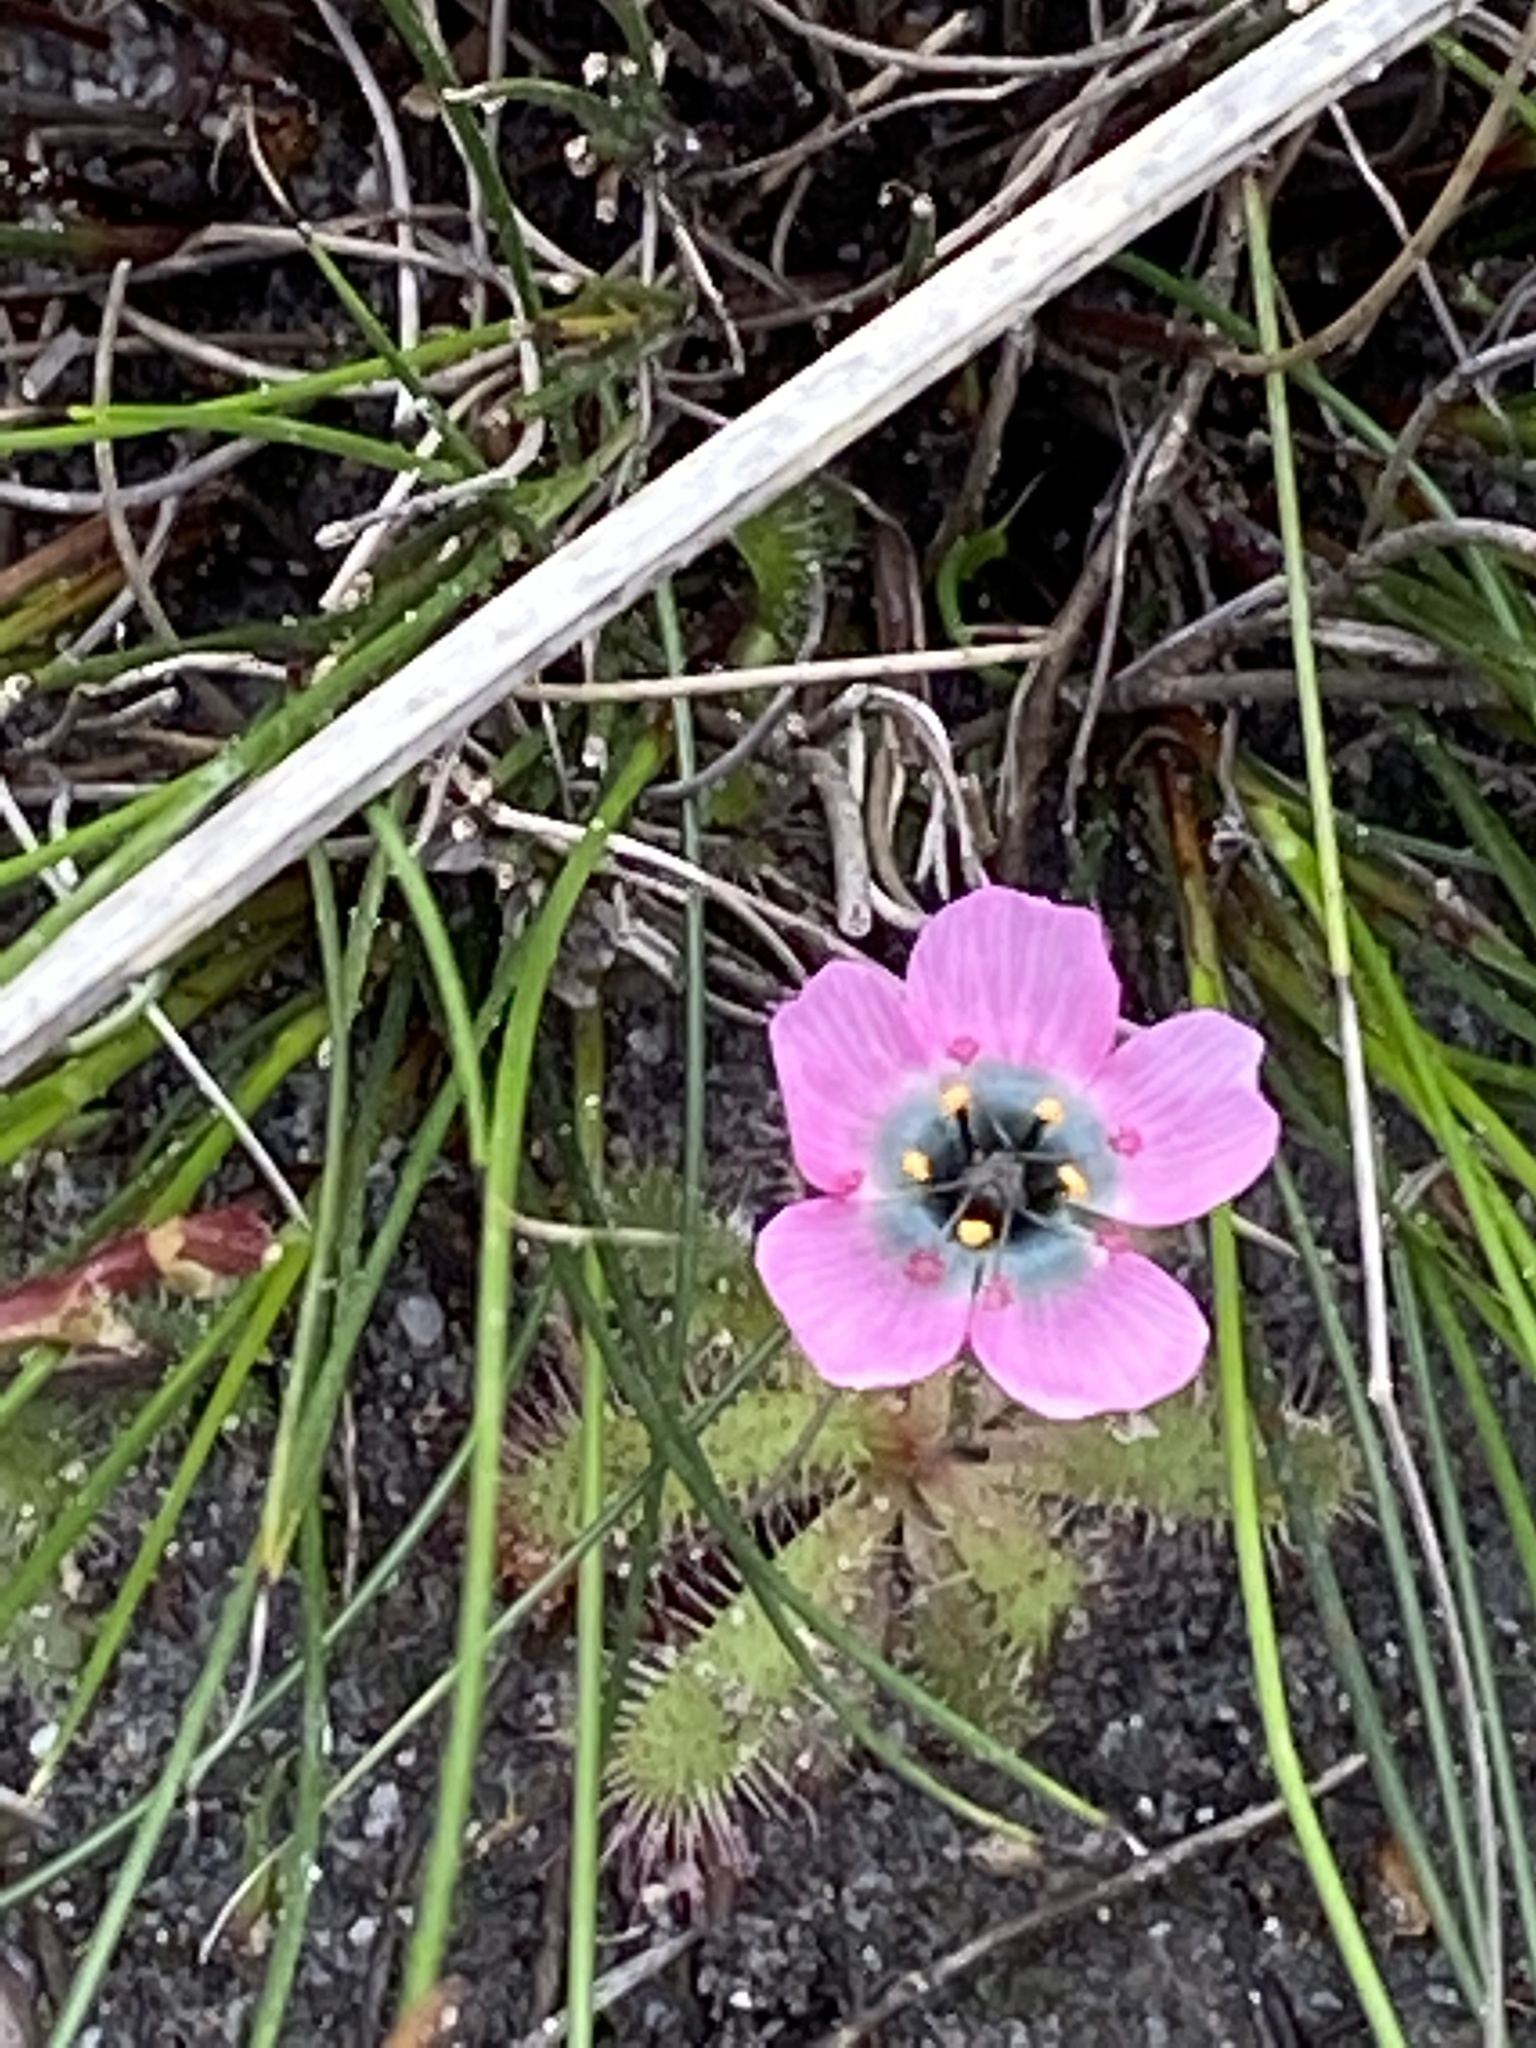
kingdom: Plantae
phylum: Tracheophyta
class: Magnoliopsida
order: Caryophyllales
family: Droseraceae
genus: Drosera
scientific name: Drosera cistiflora
